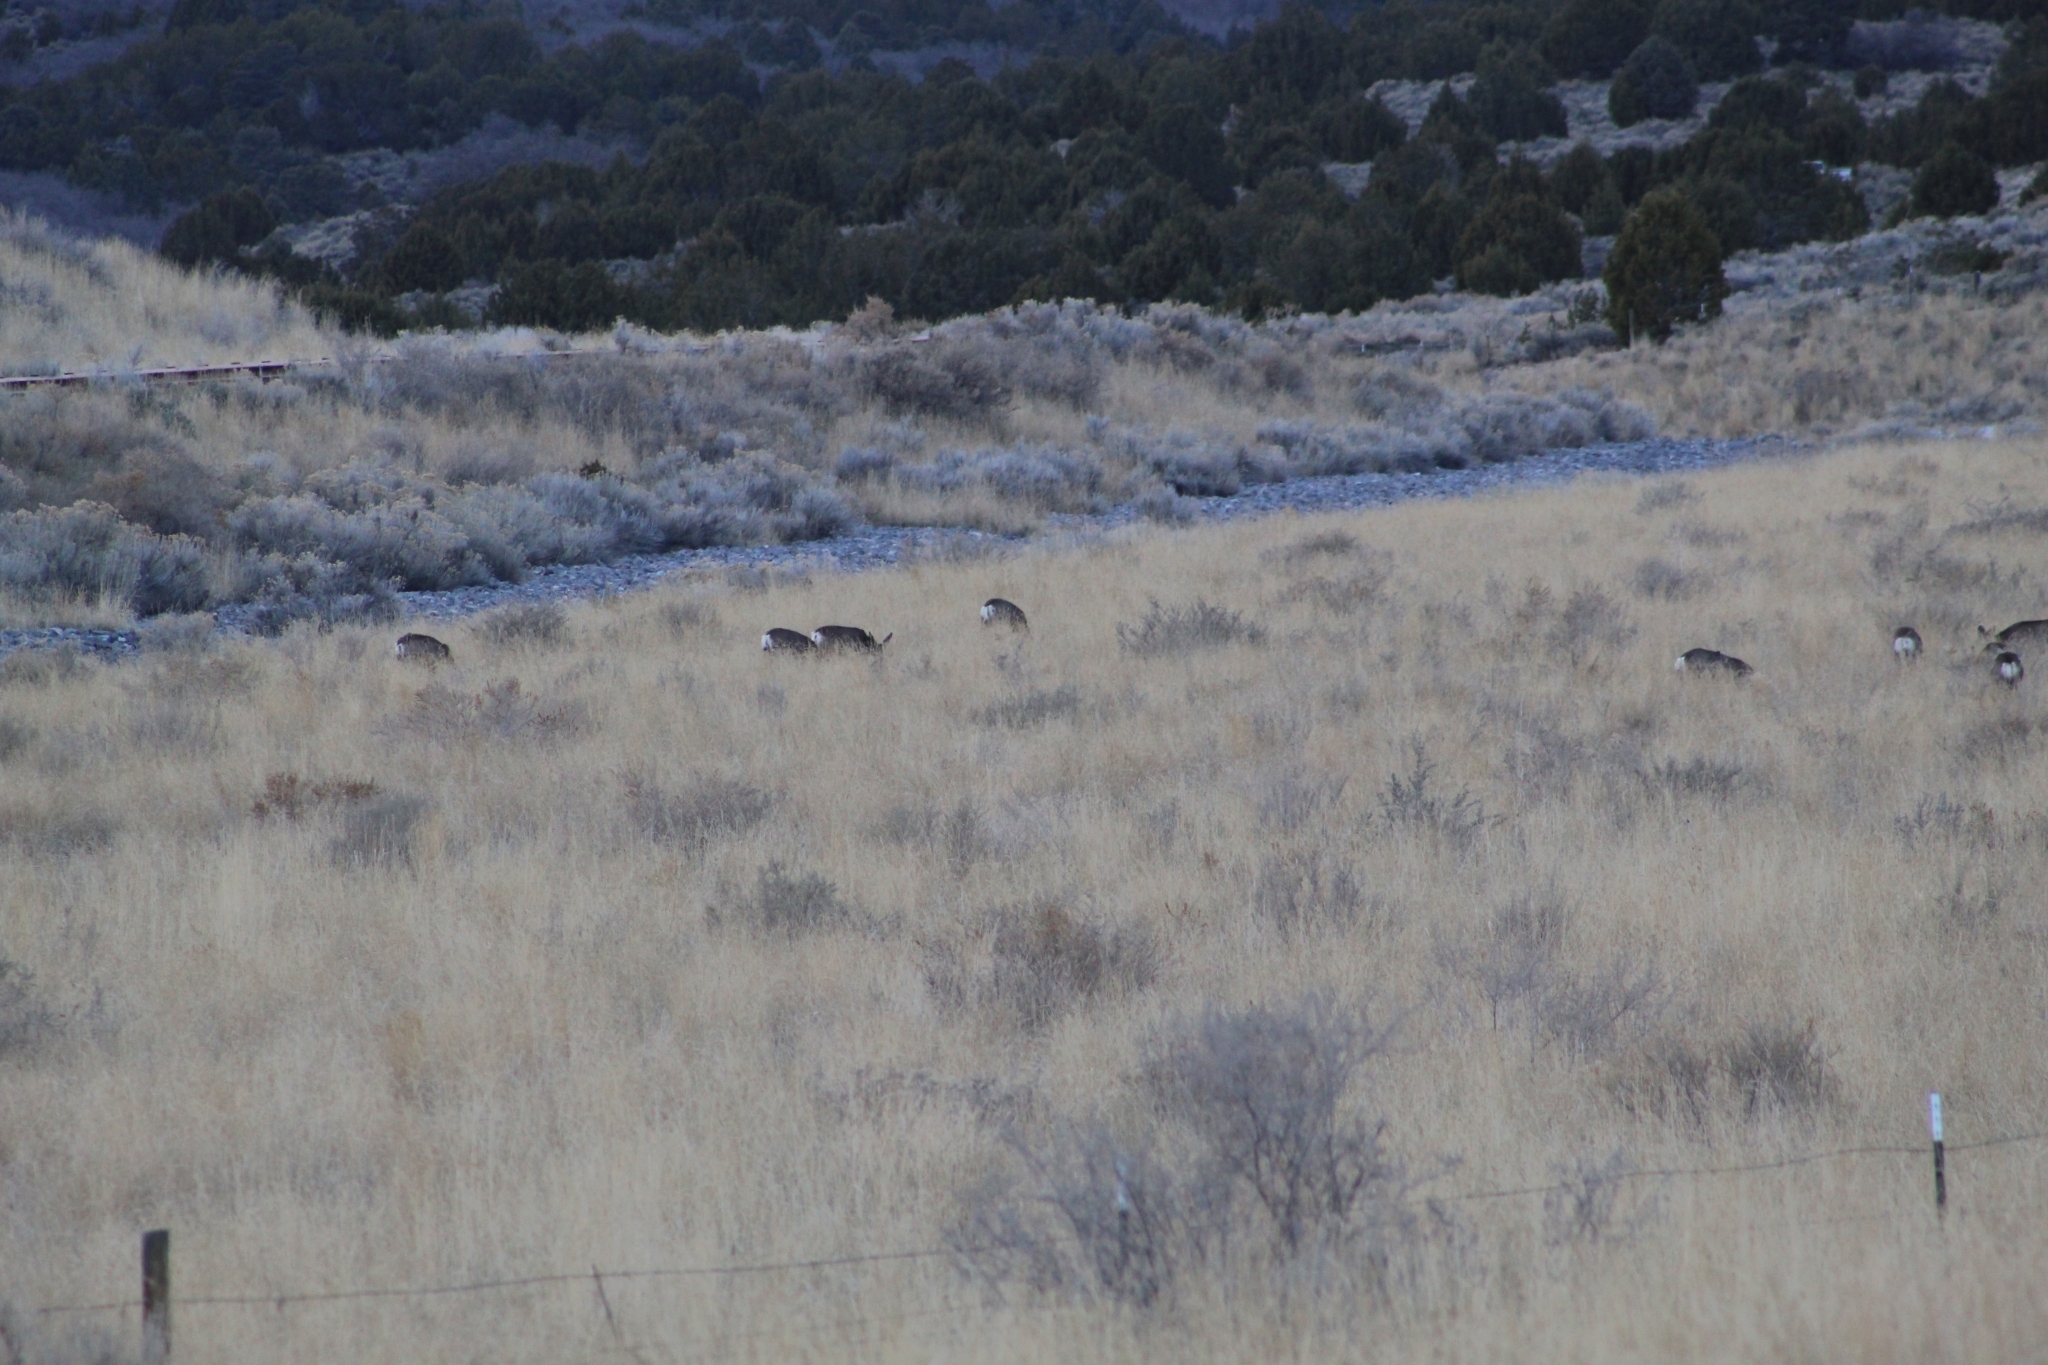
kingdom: Animalia
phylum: Chordata
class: Mammalia
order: Artiodactyla
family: Cervidae
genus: Odocoileus
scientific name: Odocoileus hemionus
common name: Mule deer
